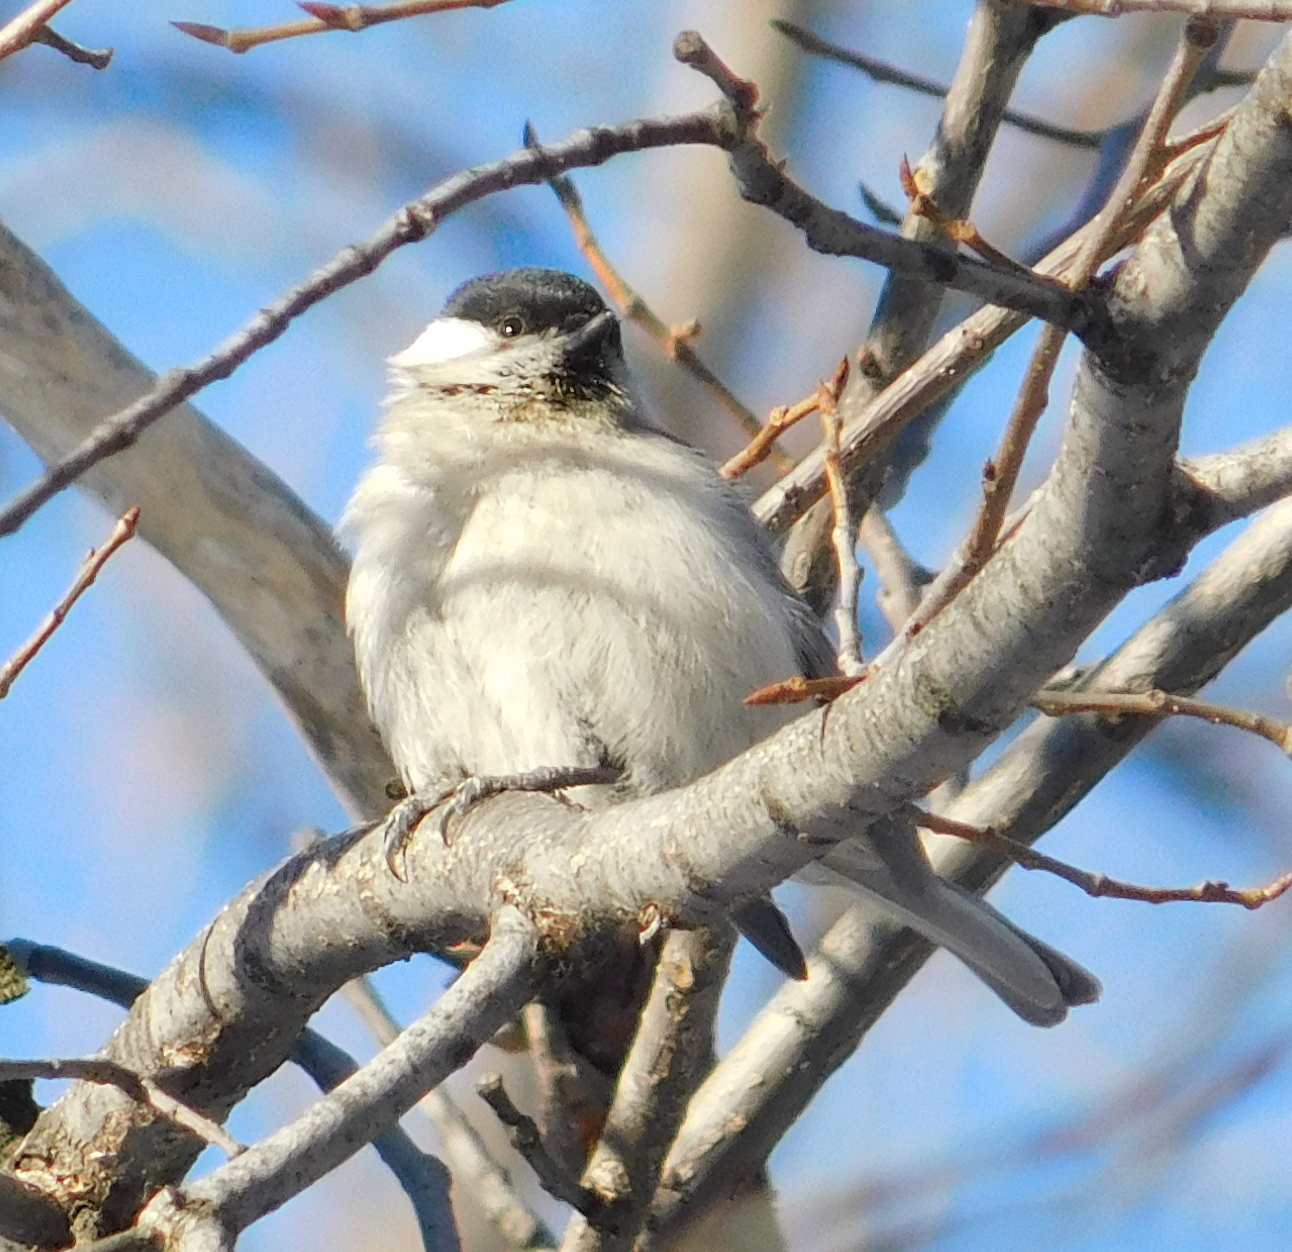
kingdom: Animalia
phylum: Chordata
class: Aves
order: Passeriformes
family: Paridae
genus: Poecile
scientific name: Poecile palustris
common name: Marsh tit
